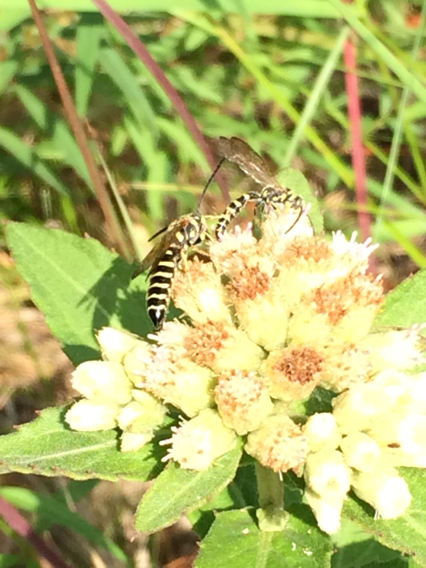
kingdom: Animalia
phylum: Arthropoda
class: Insecta
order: Hymenoptera
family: Tiphiidae
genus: Myzinum
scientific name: Myzinum
